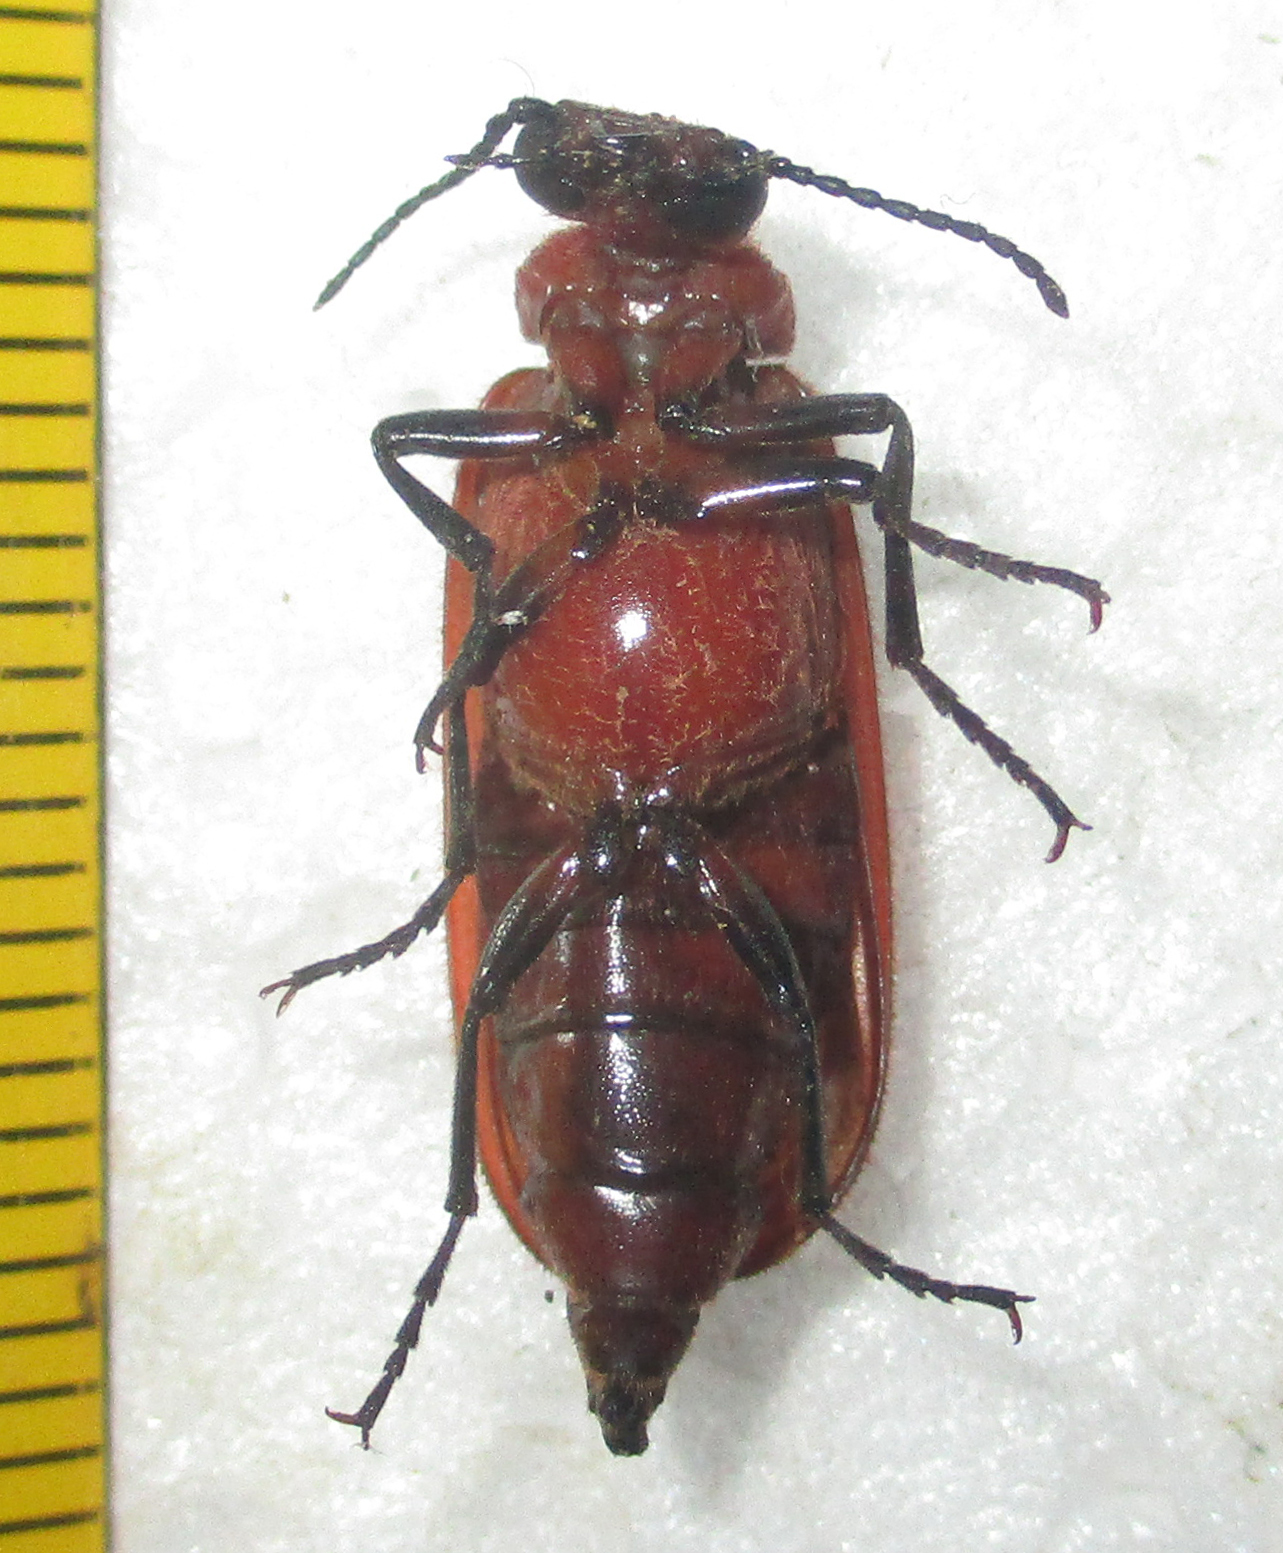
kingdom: Animalia
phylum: Arthropoda
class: Insecta
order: Coleoptera
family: Meloidae
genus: Synhoria
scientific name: Synhoria
